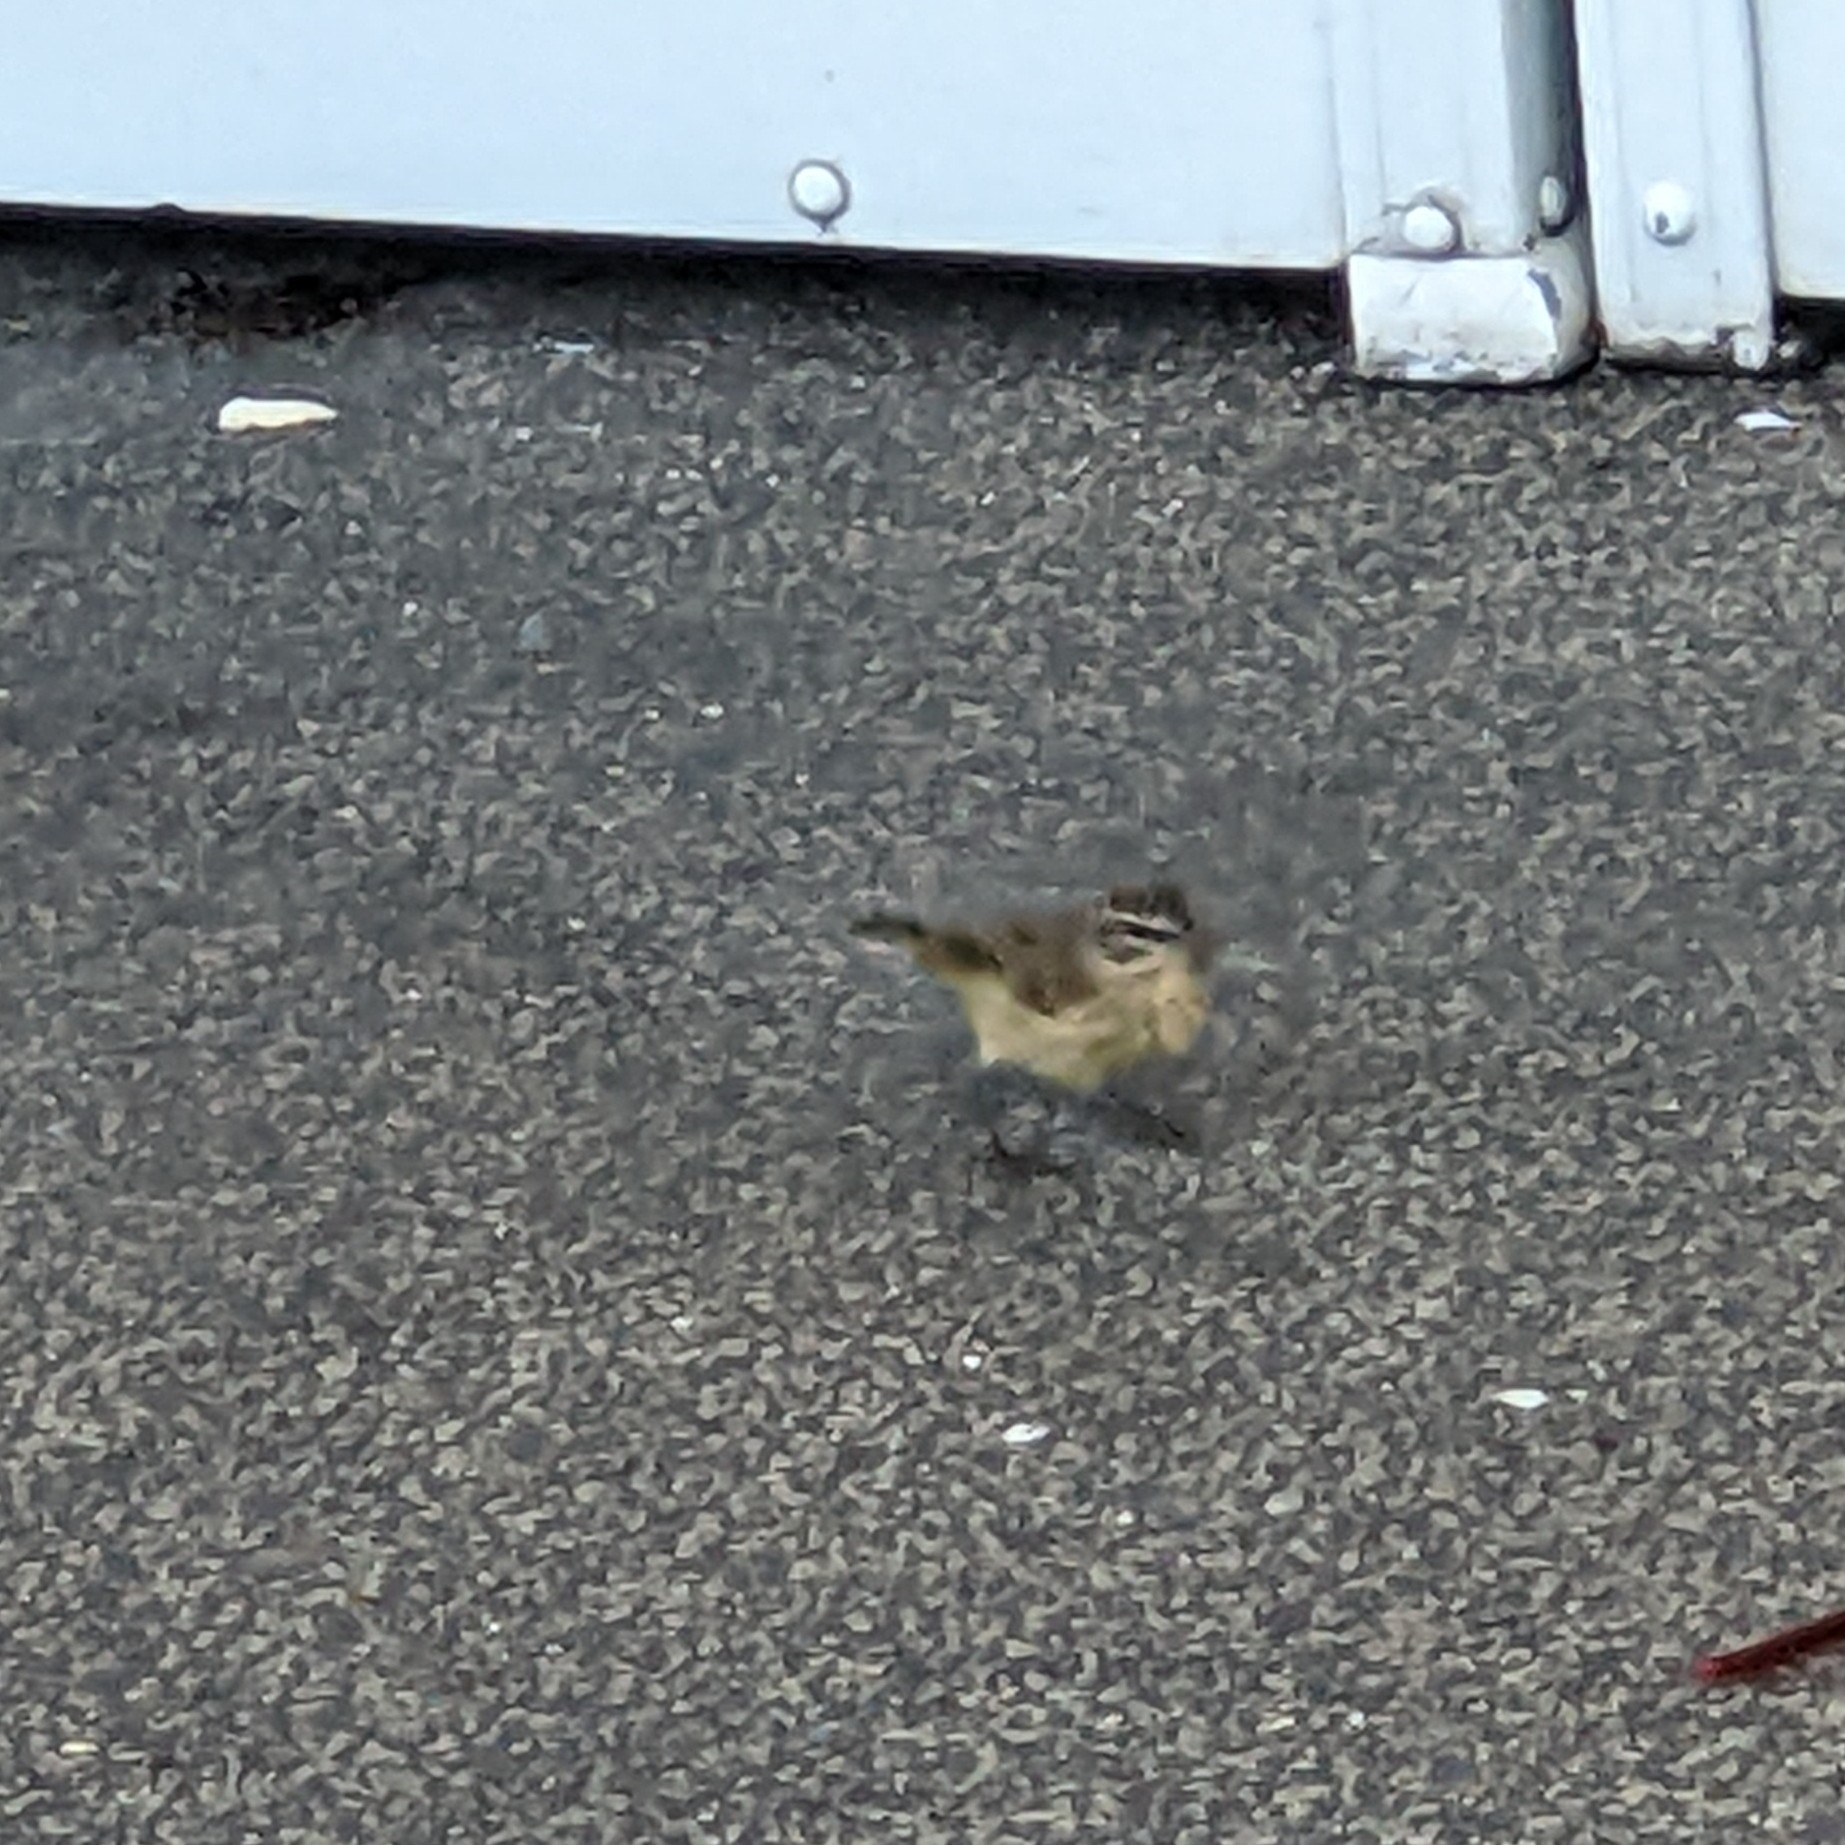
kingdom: Animalia
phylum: Chordata
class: Aves
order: Passeriformes
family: Parulidae
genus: Setophaga
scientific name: Setophaga palmarum
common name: Palm warbler
